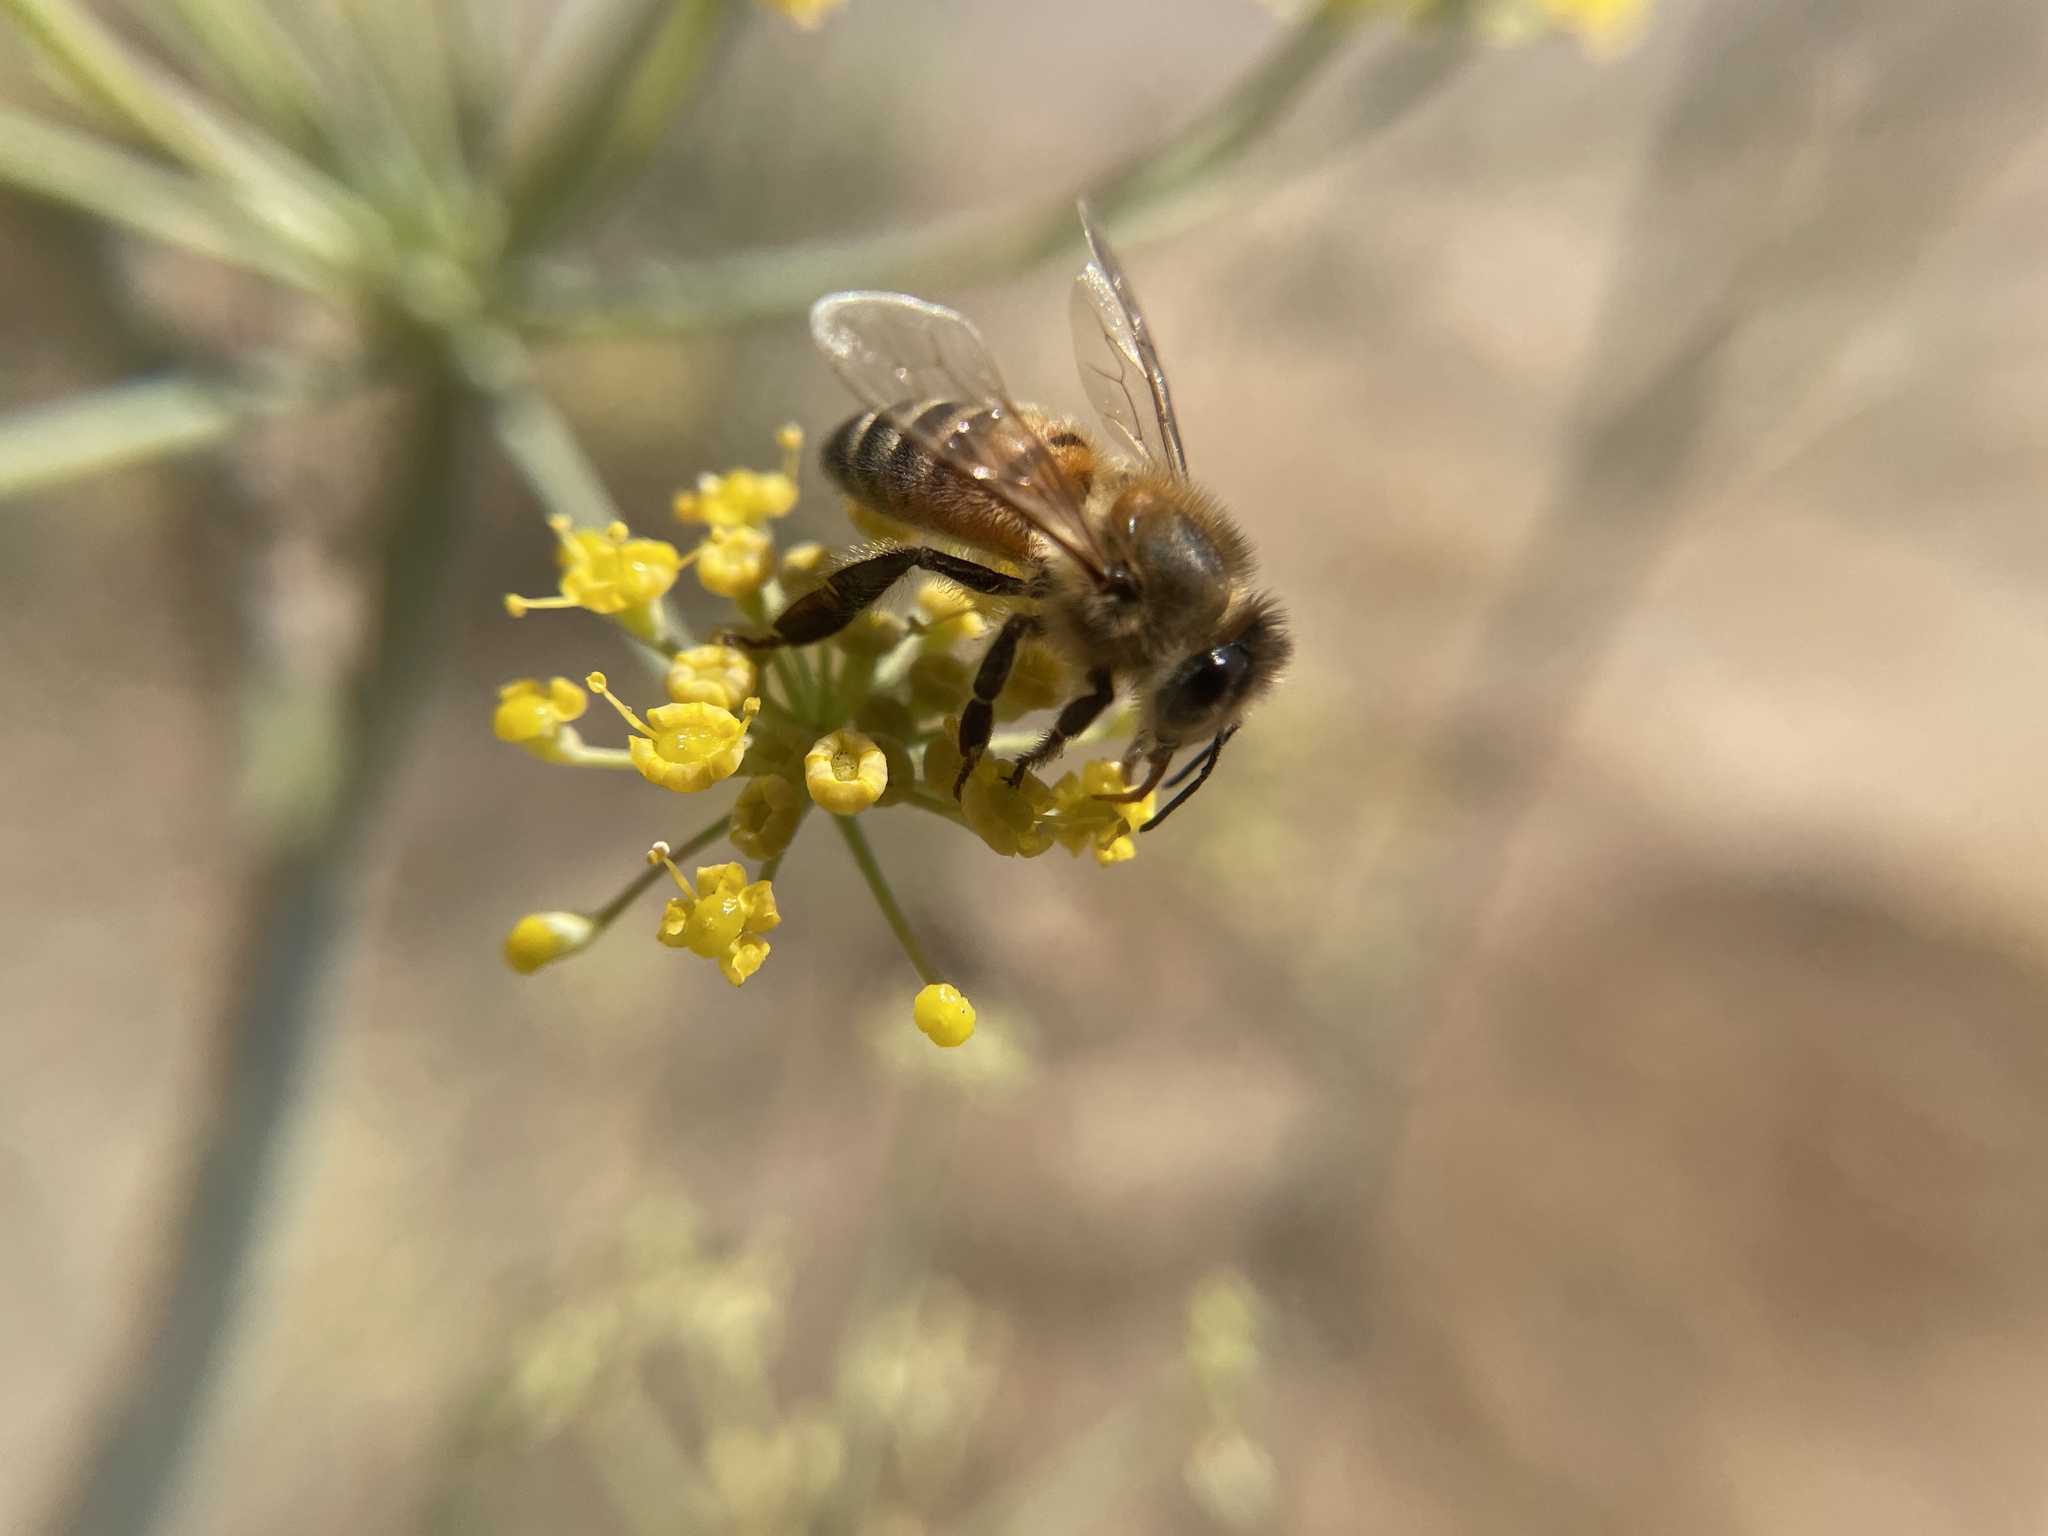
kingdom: Animalia
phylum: Arthropoda
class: Insecta
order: Hymenoptera
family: Apidae
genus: Apis
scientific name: Apis mellifera
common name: Honey bee
